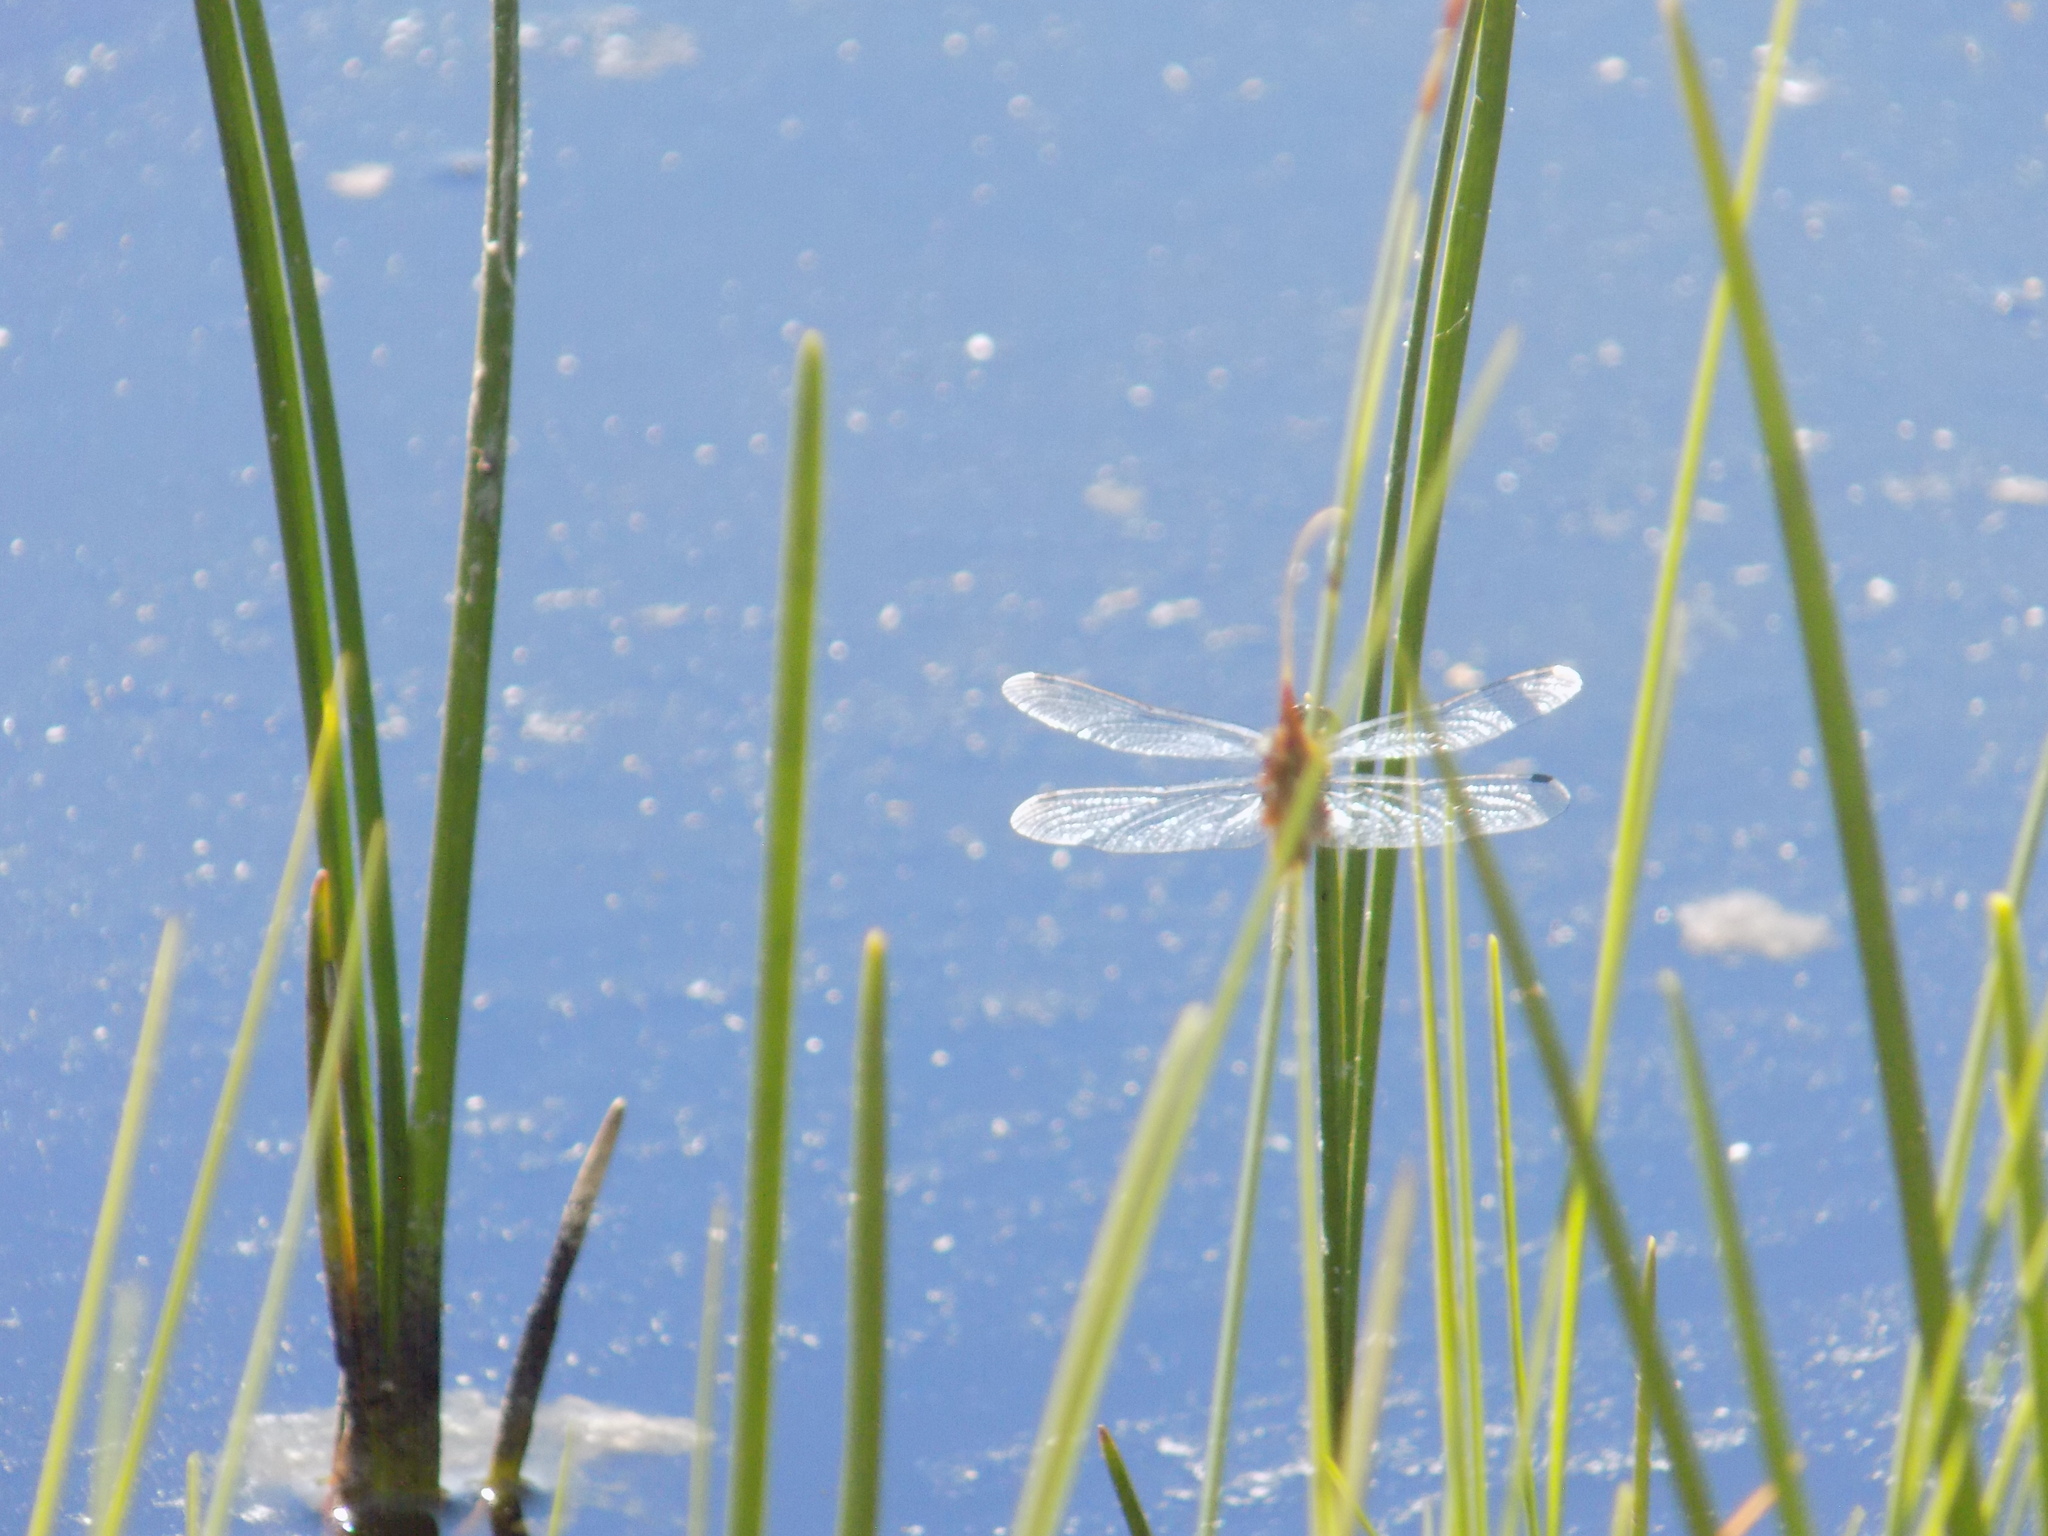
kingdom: Animalia
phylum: Arthropoda
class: Insecta
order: Odonata
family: Libellulidae
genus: Leucorrhinia
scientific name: Leucorrhinia orientalis
